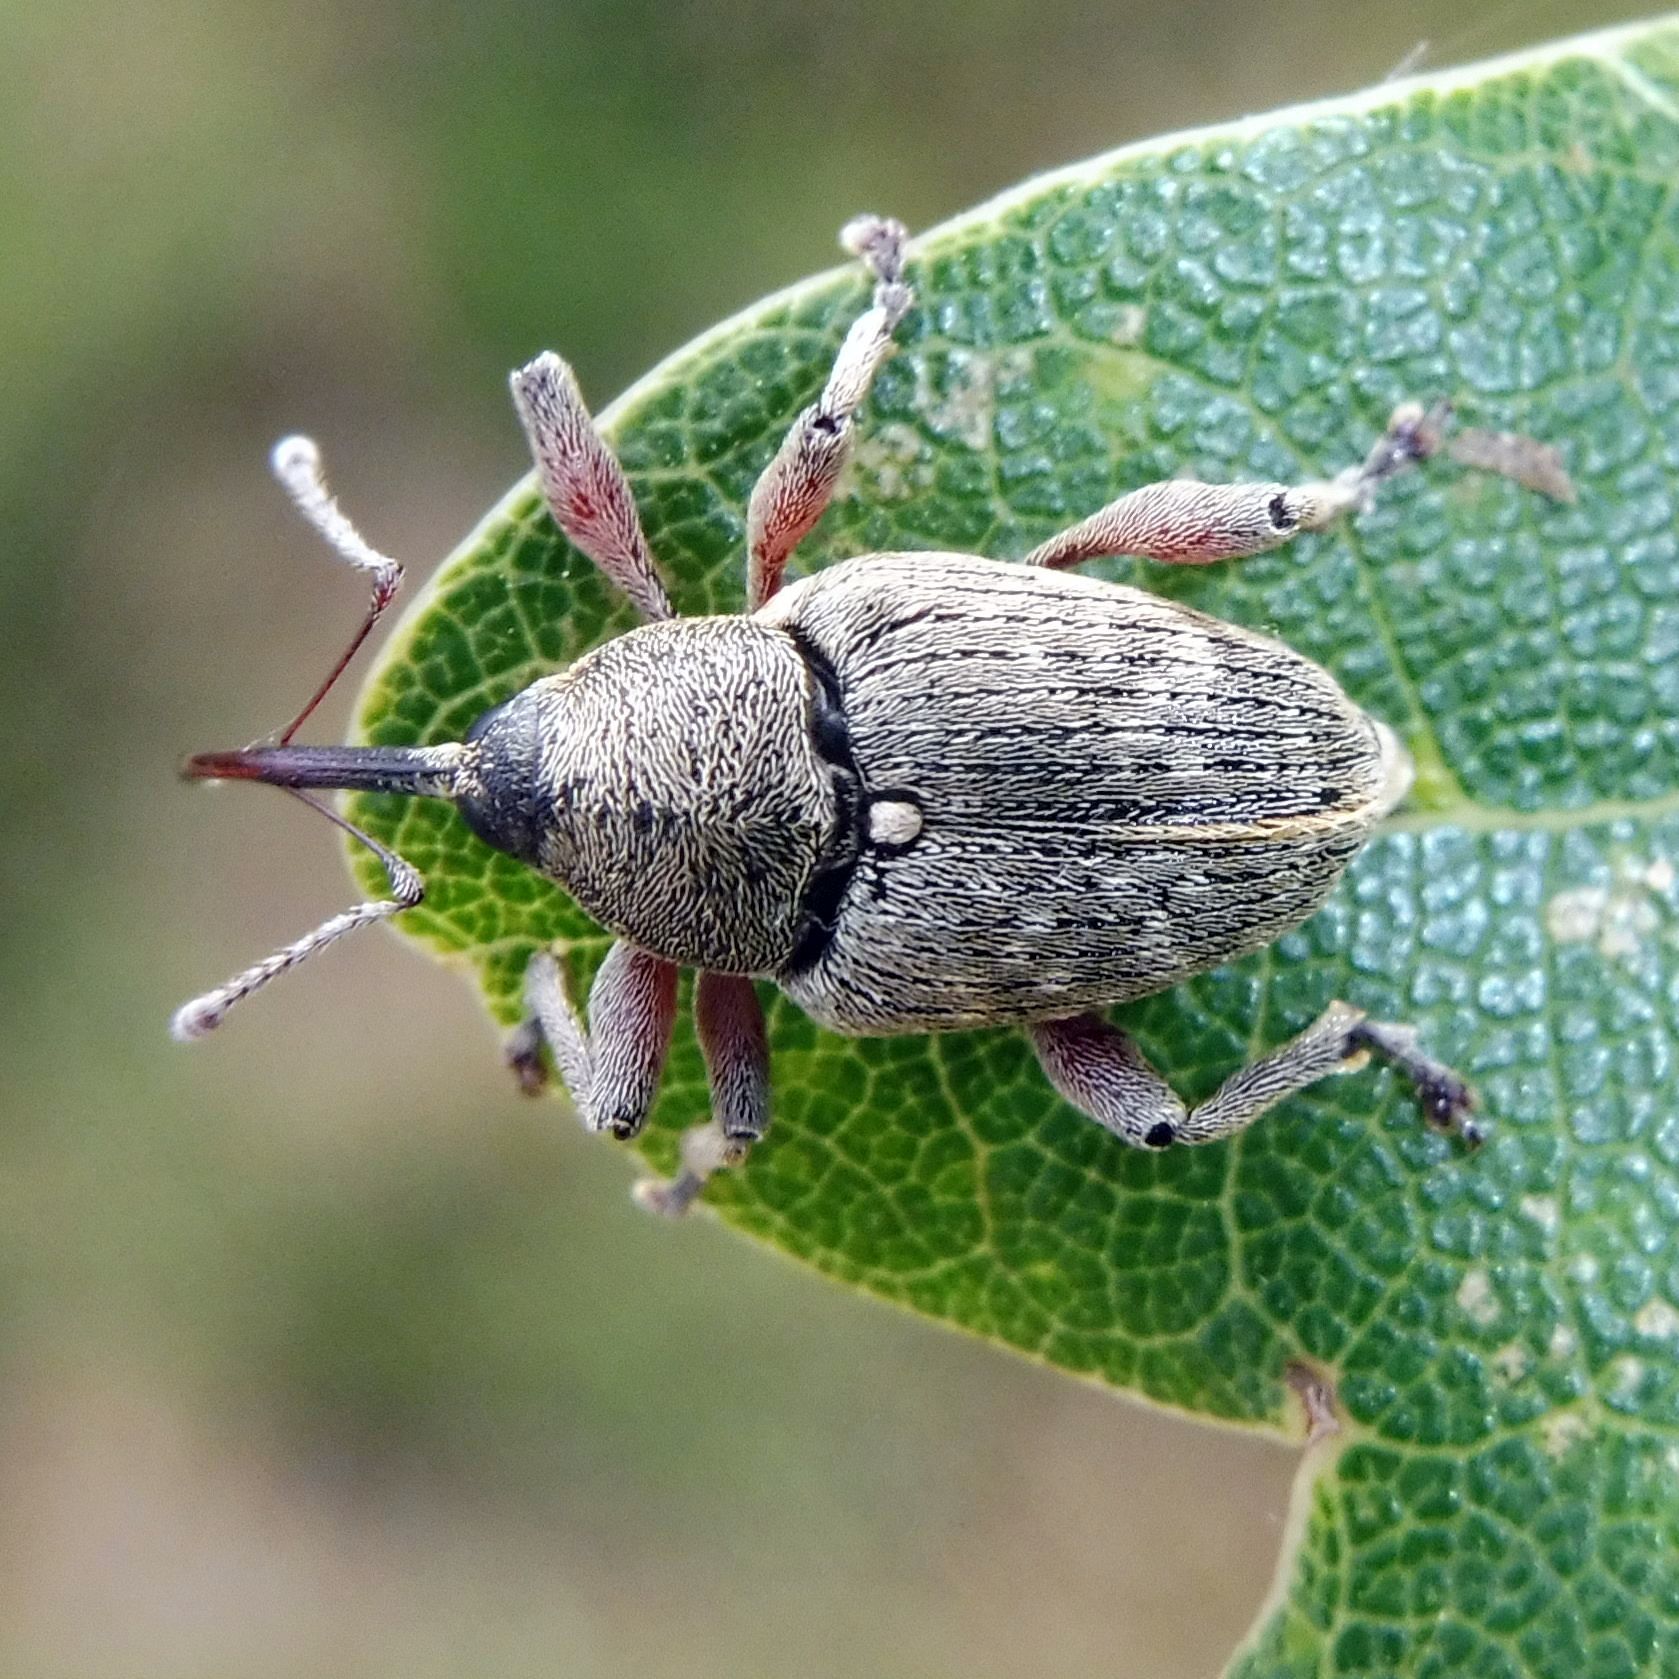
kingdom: Animalia
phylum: Arthropoda
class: Insecta
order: Coleoptera
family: Curculionidae
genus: Curculio
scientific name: Curculio nucum
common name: Nut weevil
